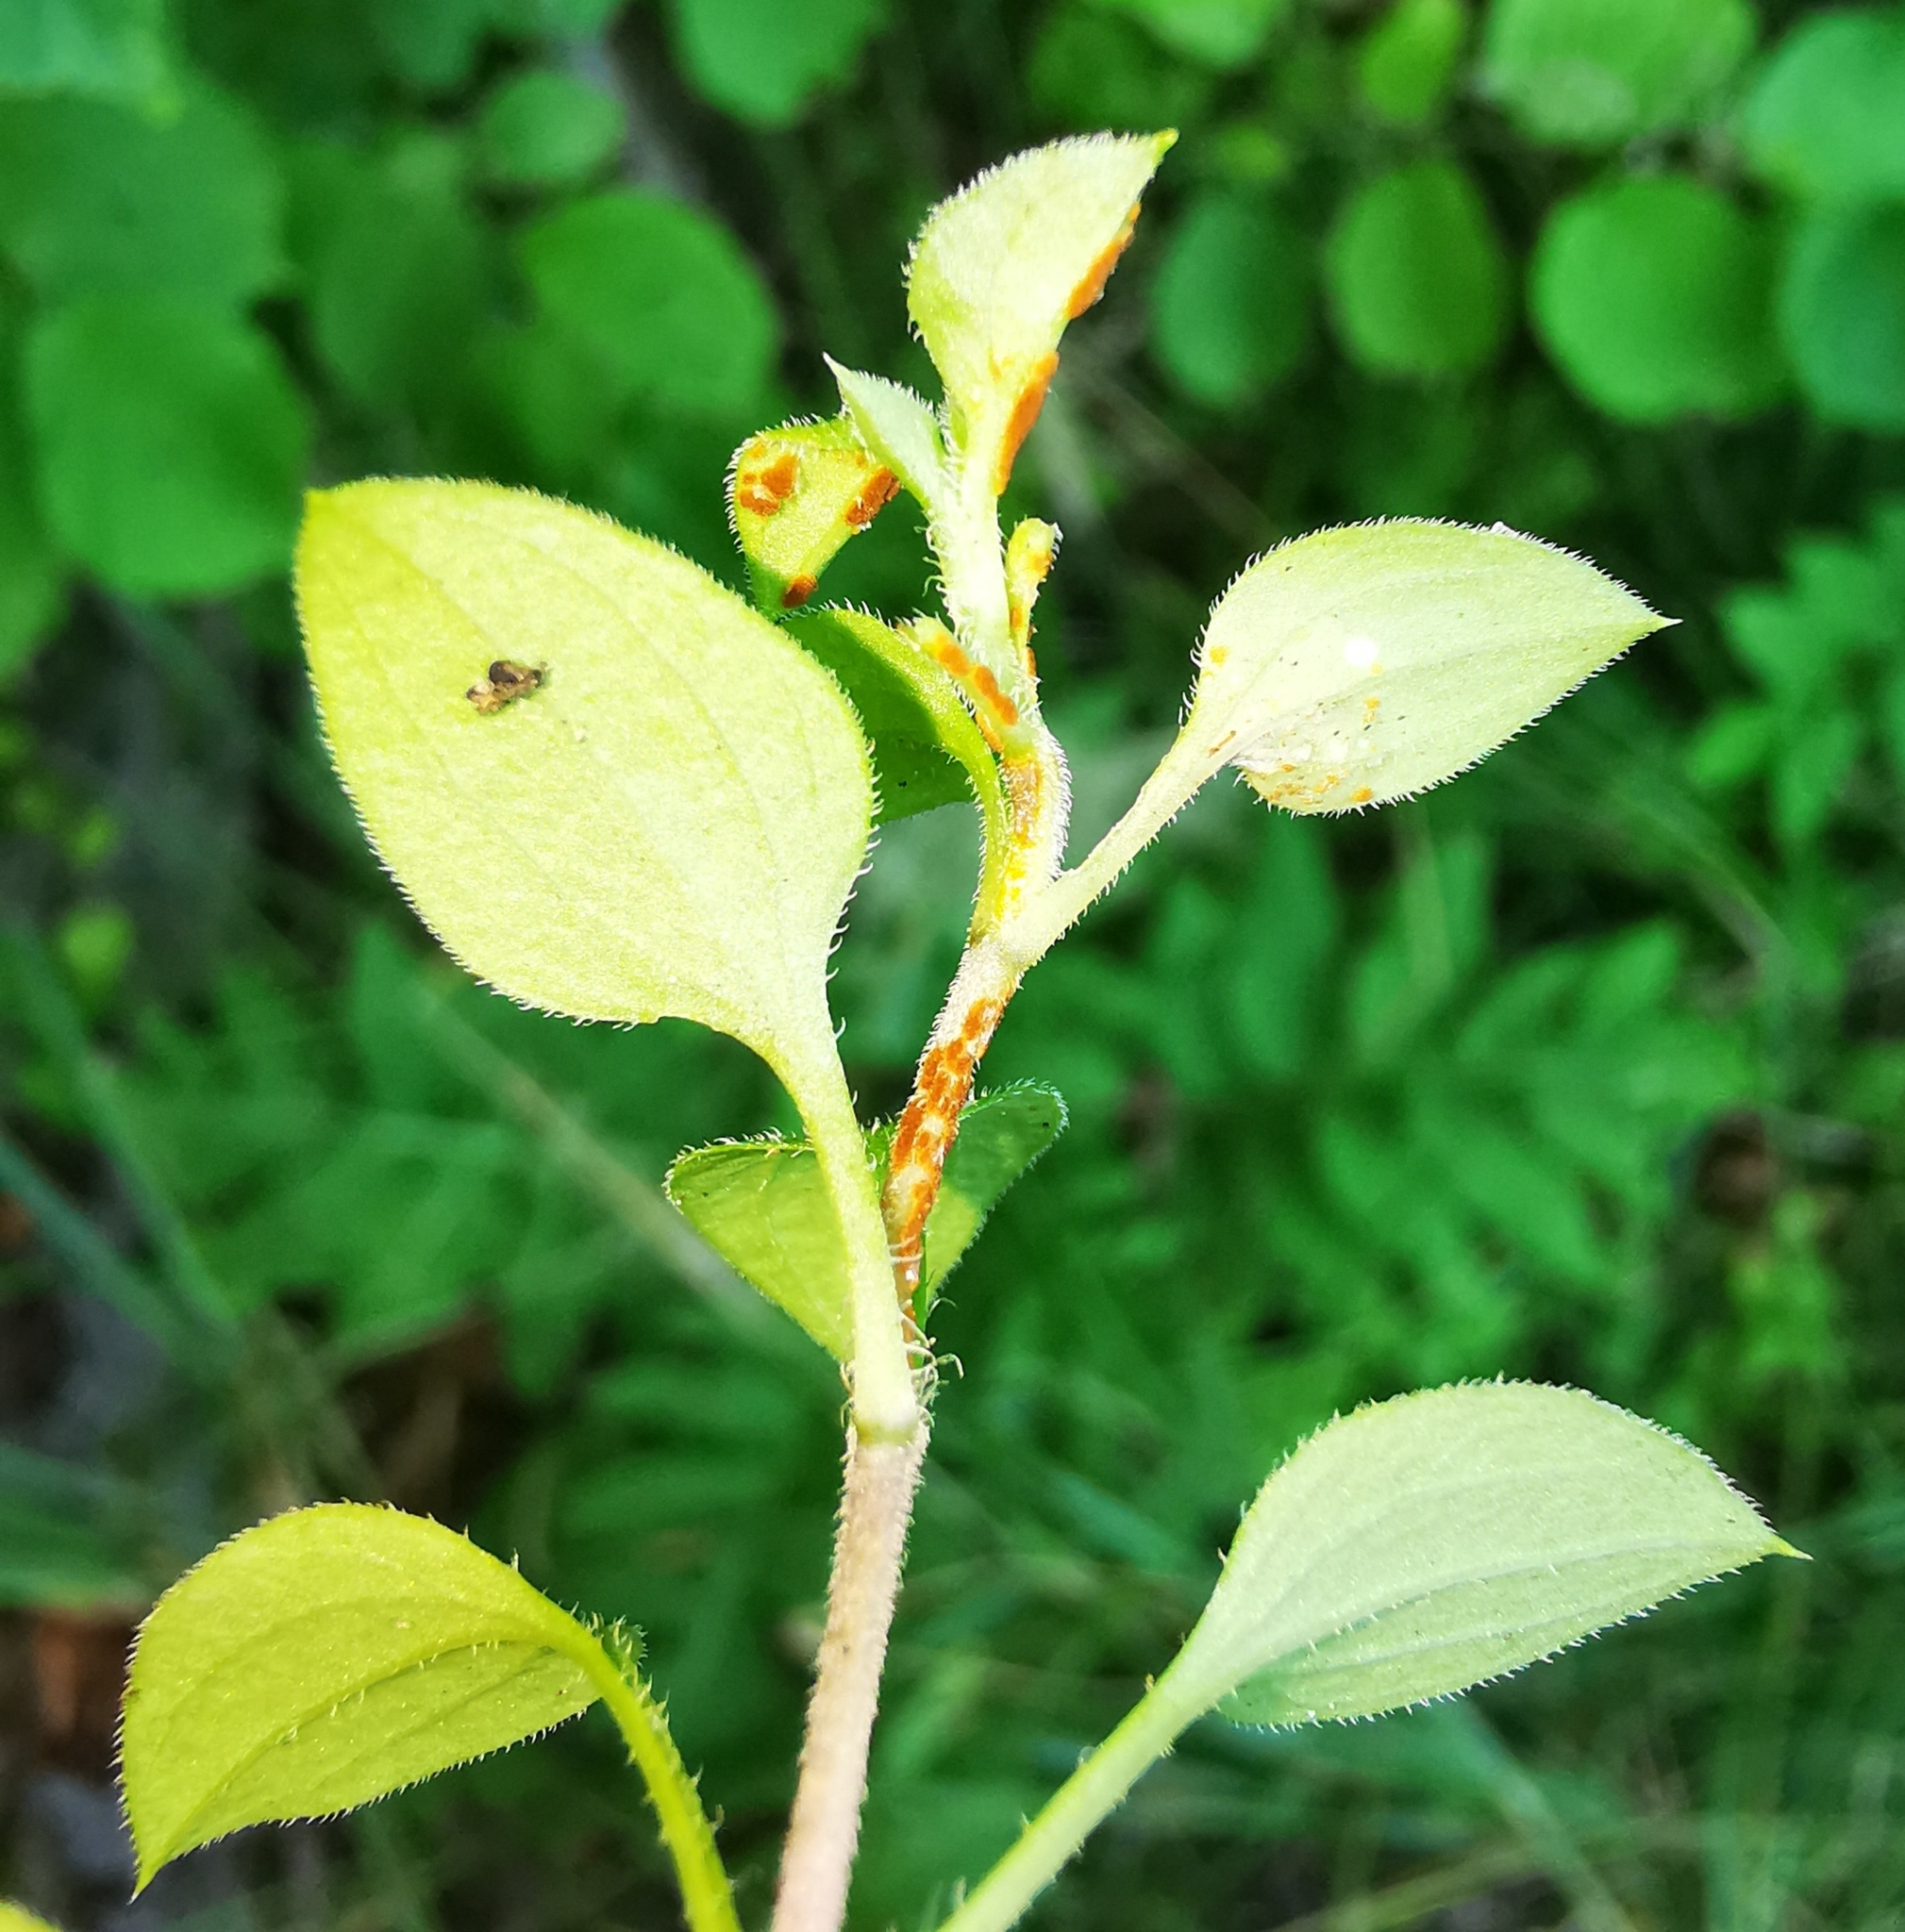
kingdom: Plantae
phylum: Tracheophyta
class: Magnoliopsida
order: Caryophyllales
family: Caryophyllaceae
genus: Moehringia
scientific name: Moehringia trinervia
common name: Three-nerved sandwort
